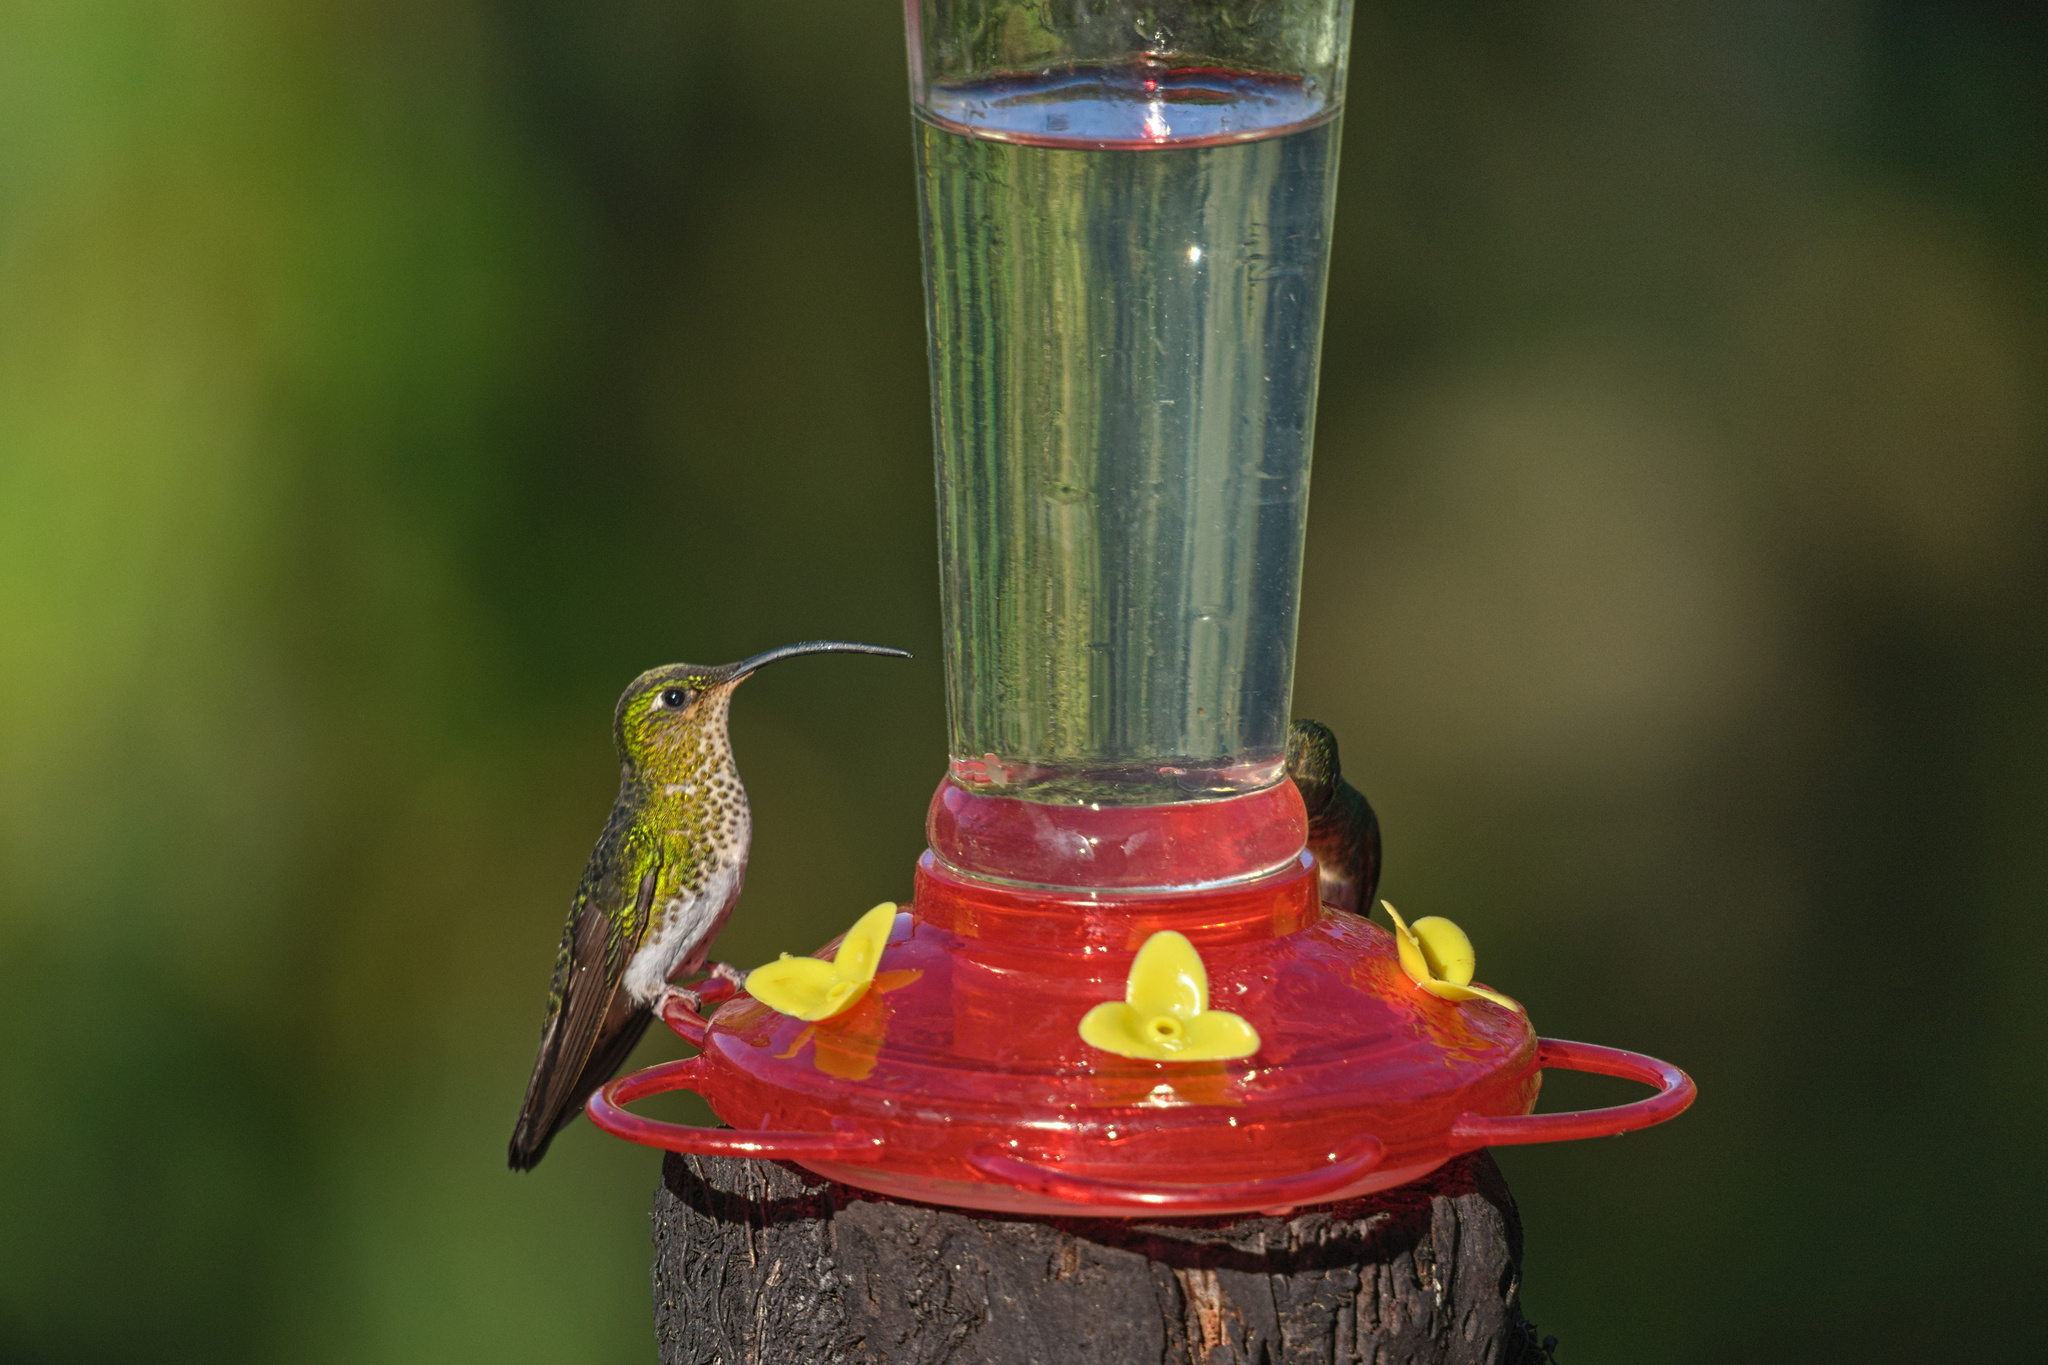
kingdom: Animalia
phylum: Chordata
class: Aves
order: Apodiformes
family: Trochilidae
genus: Lafresnaya
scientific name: Lafresnaya lafresnayi
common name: Mountain velvetbreast
